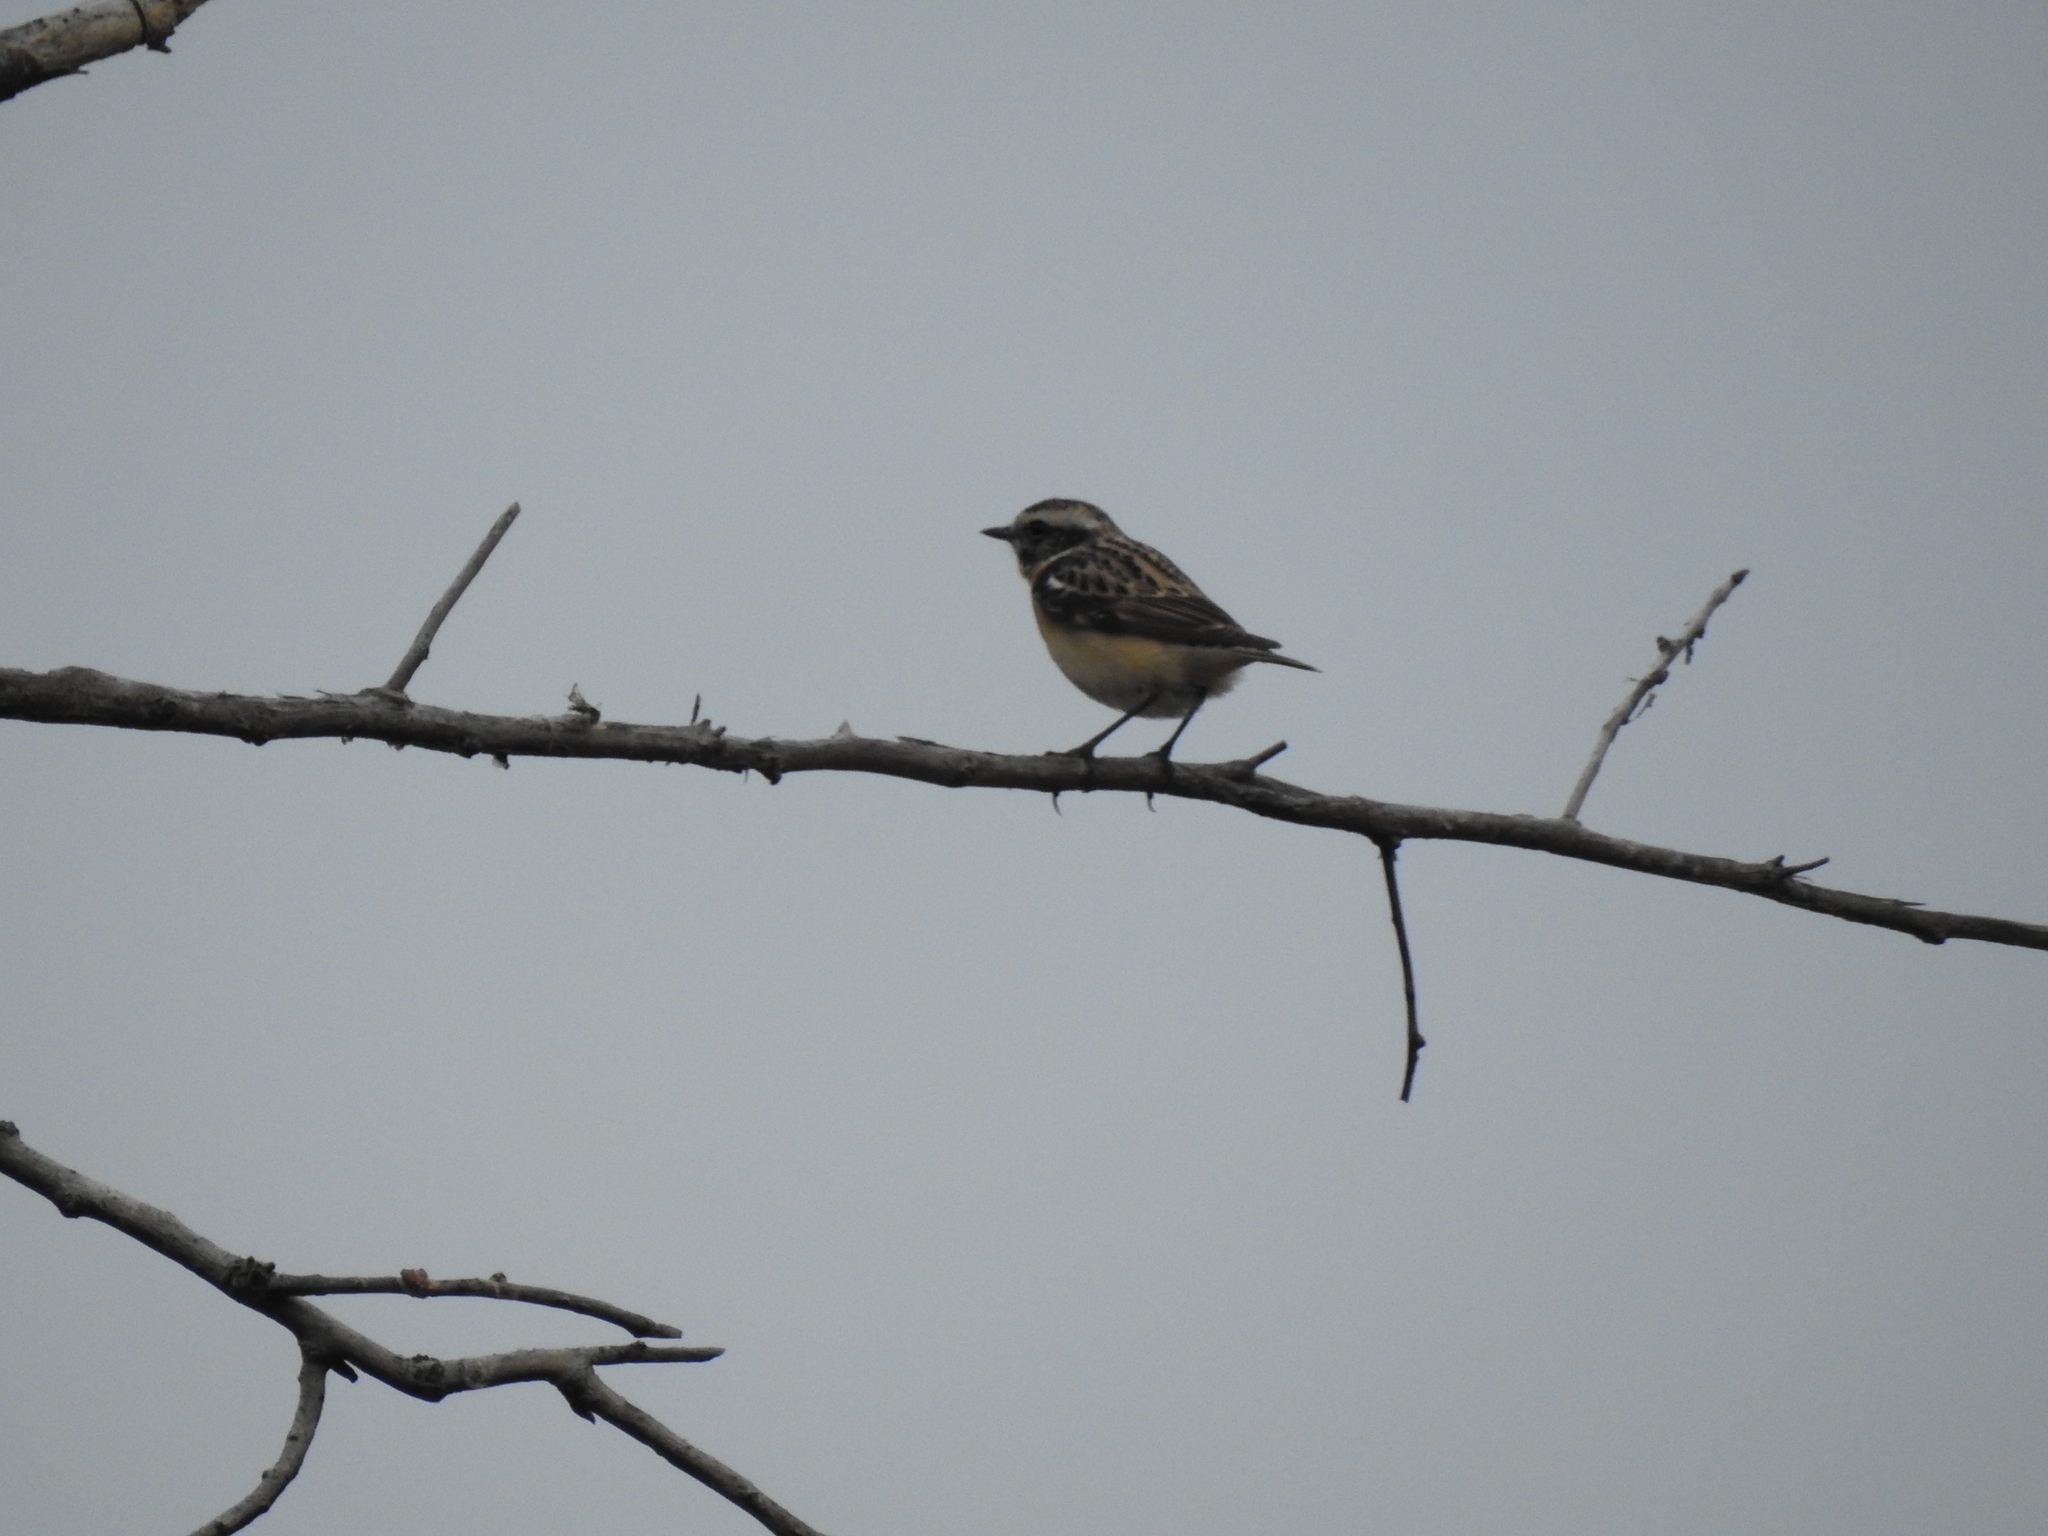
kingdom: Animalia
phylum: Chordata
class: Aves
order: Passeriformes
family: Muscicapidae
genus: Saxicola
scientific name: Saxicola rubetra
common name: Whinchat
